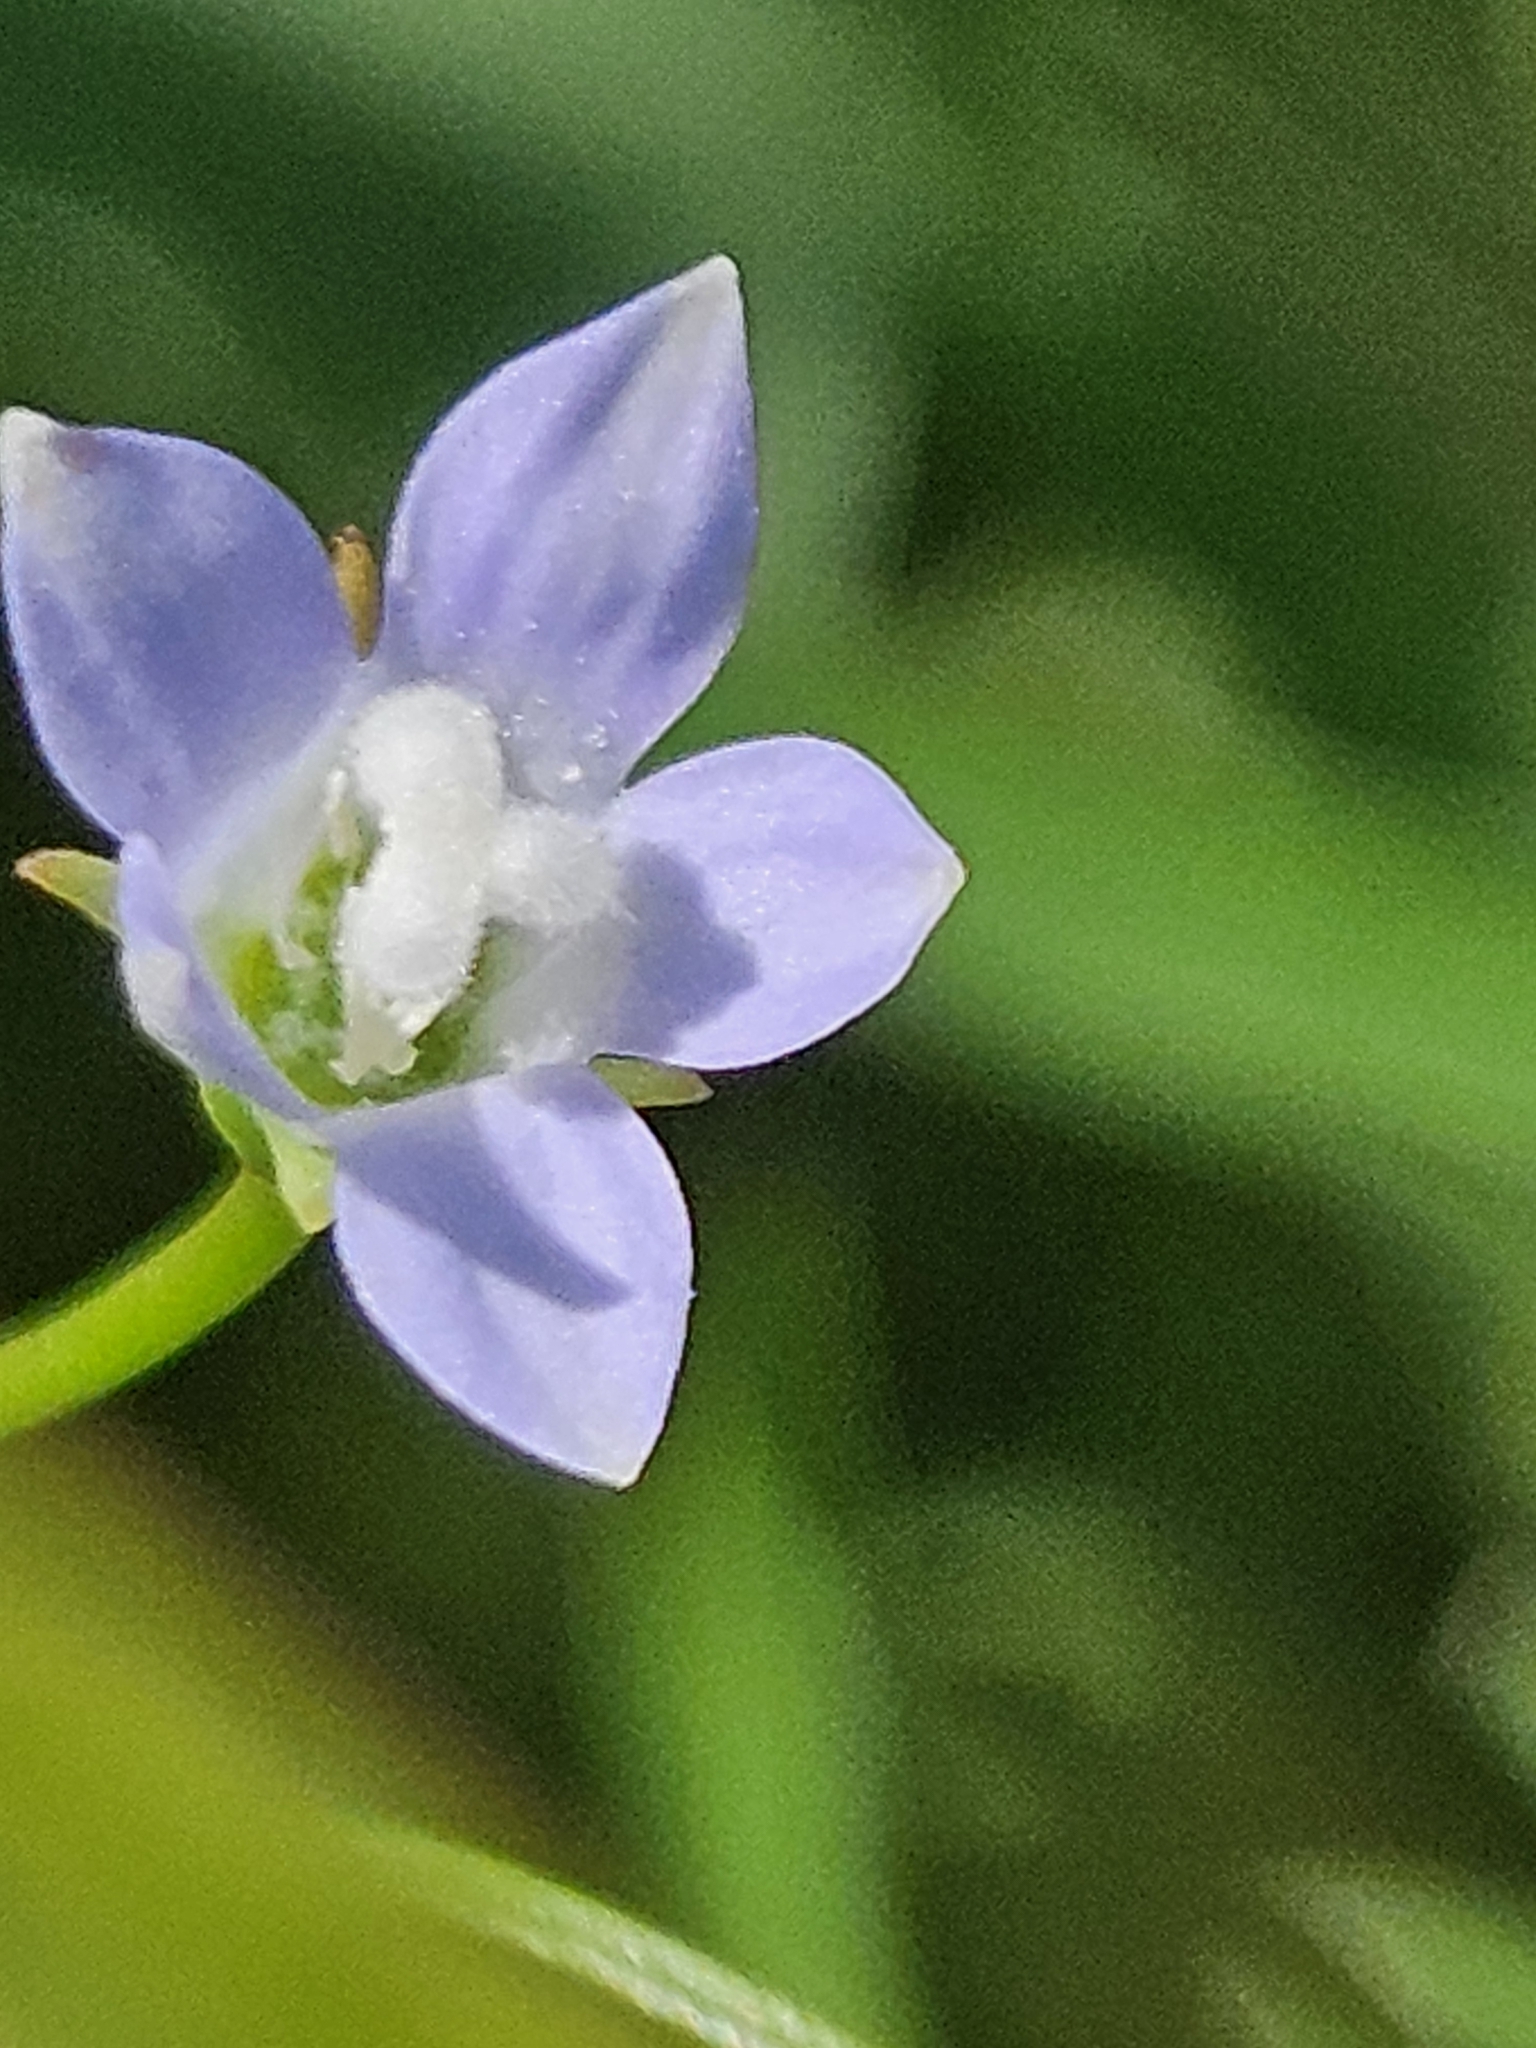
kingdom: Plantae
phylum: Tracheophyta
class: Magnoliopsida
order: Asterales
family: Campanulaceae
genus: Wahlenbergia
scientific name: Wahlenbergia marginata
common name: Southern rockbell
